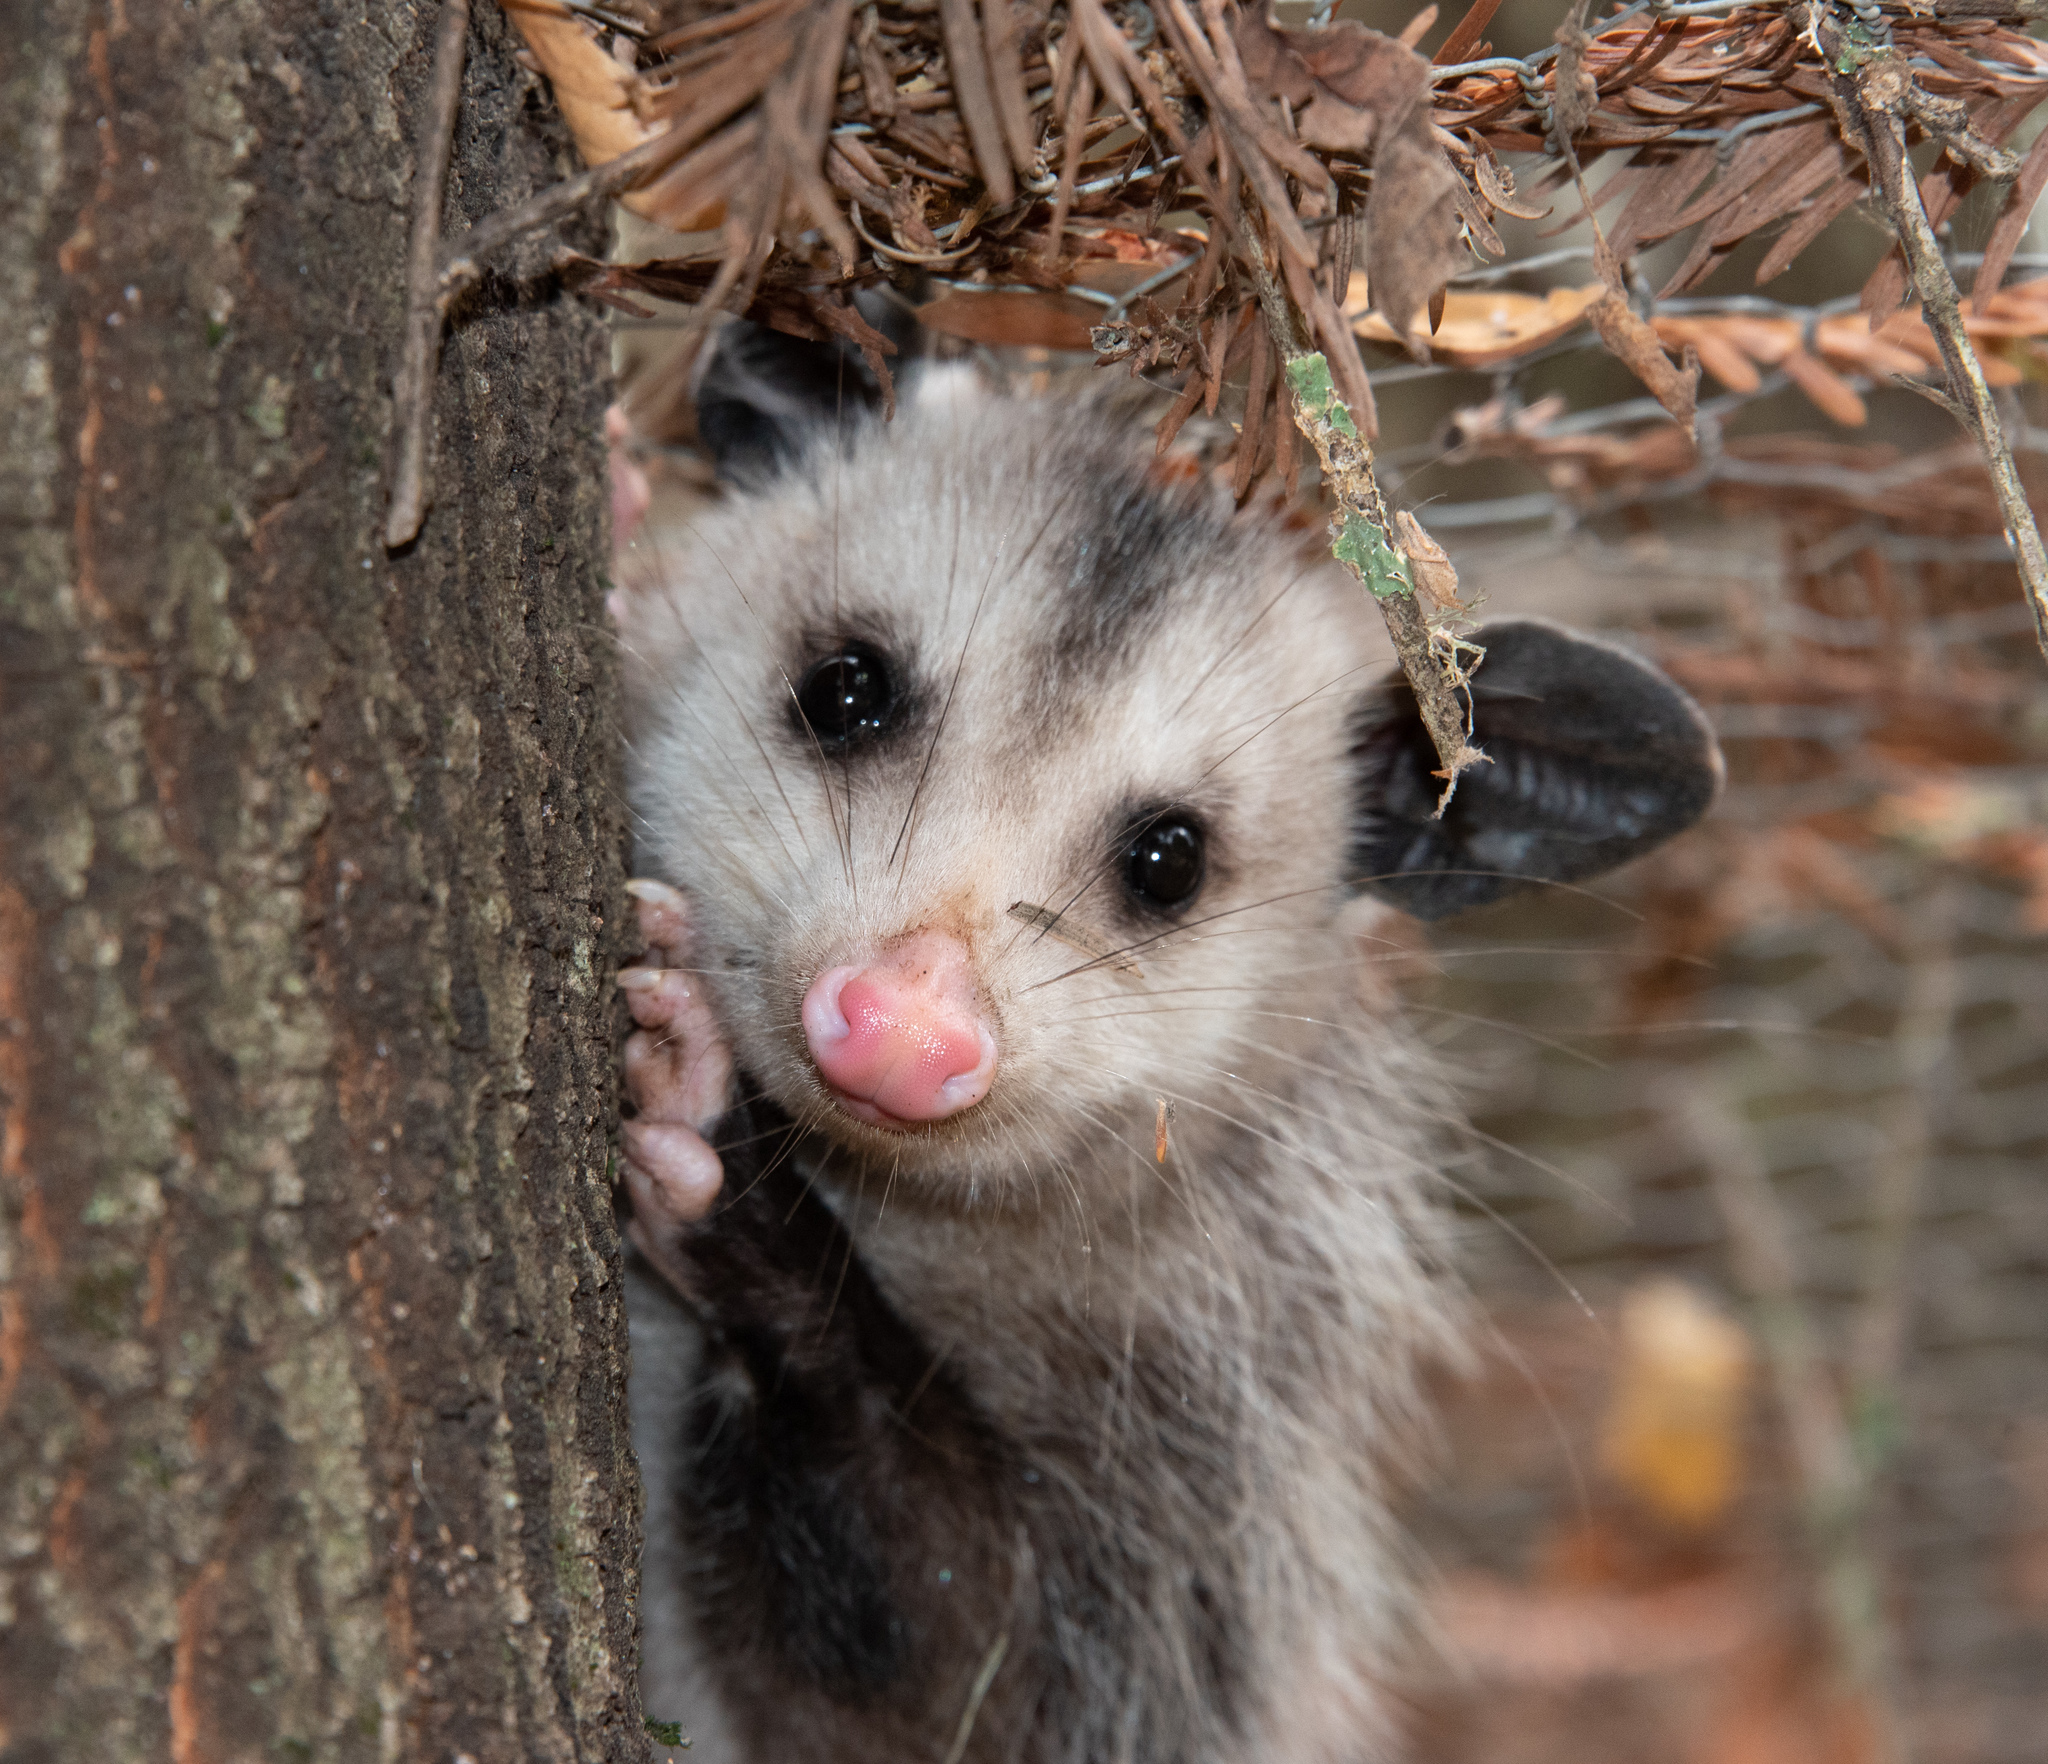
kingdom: Animalia
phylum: Chordata
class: Mammalia
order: Didelphimorphia
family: Didelphidae
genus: Didelphis
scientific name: Didelphis virginiana
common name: Virginia opossum
